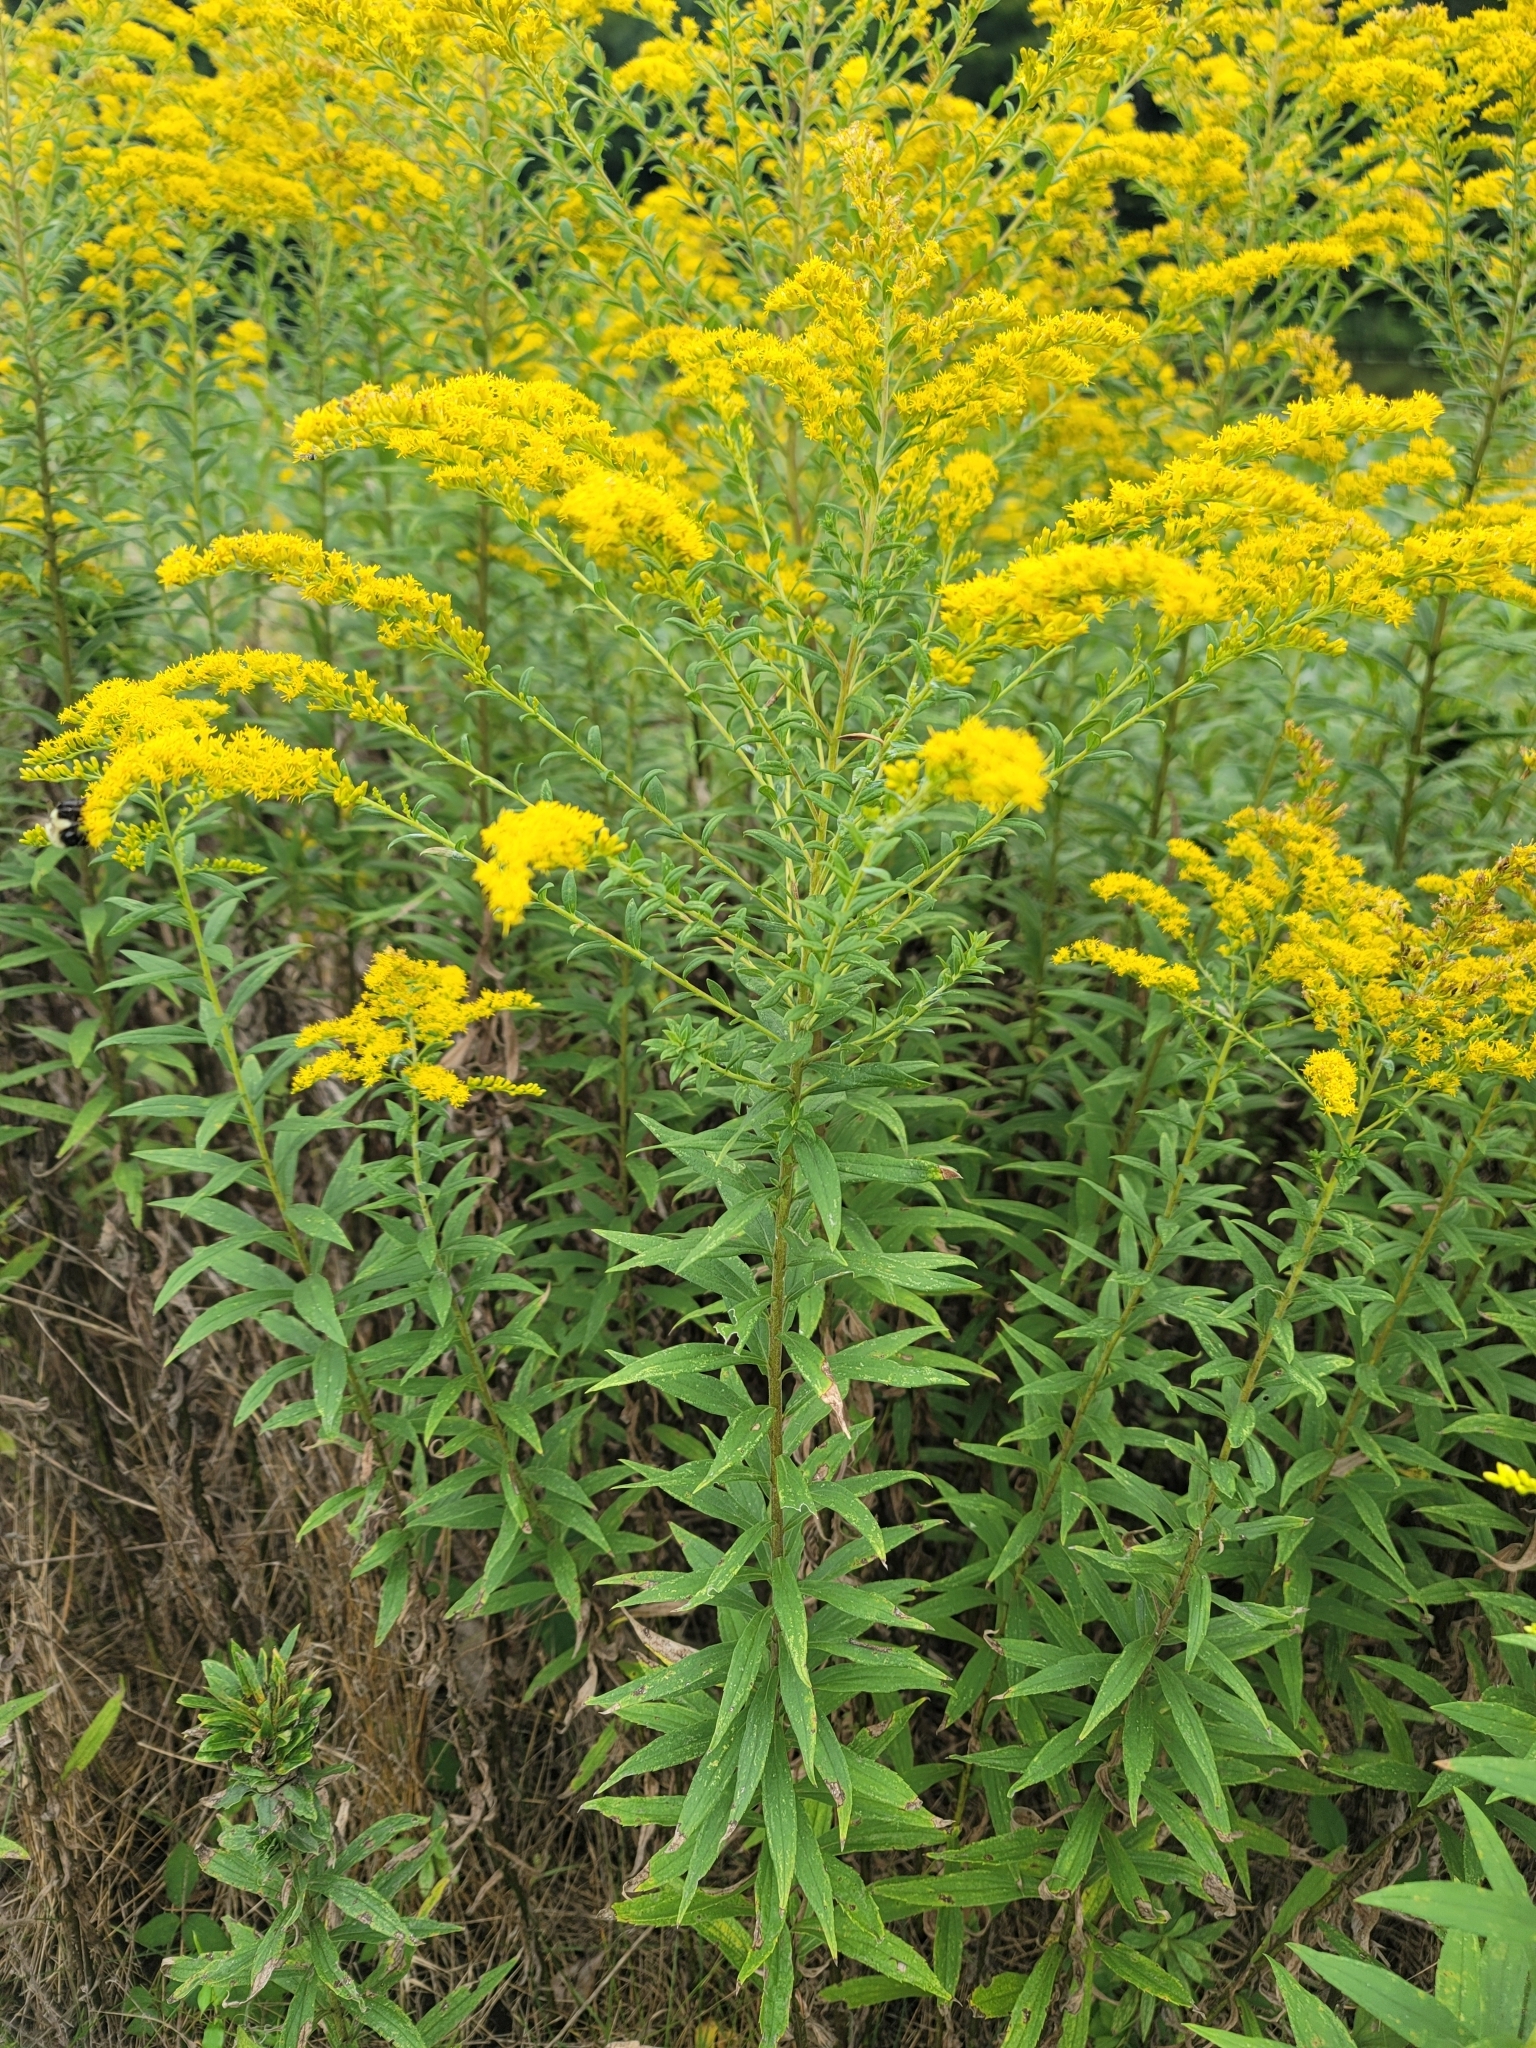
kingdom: Plantae
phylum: Tracheophyta
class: Magnoliopsida
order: Asterales
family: Asteraceae
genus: Solidago
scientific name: Solidago altissima
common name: Late goldenrod
